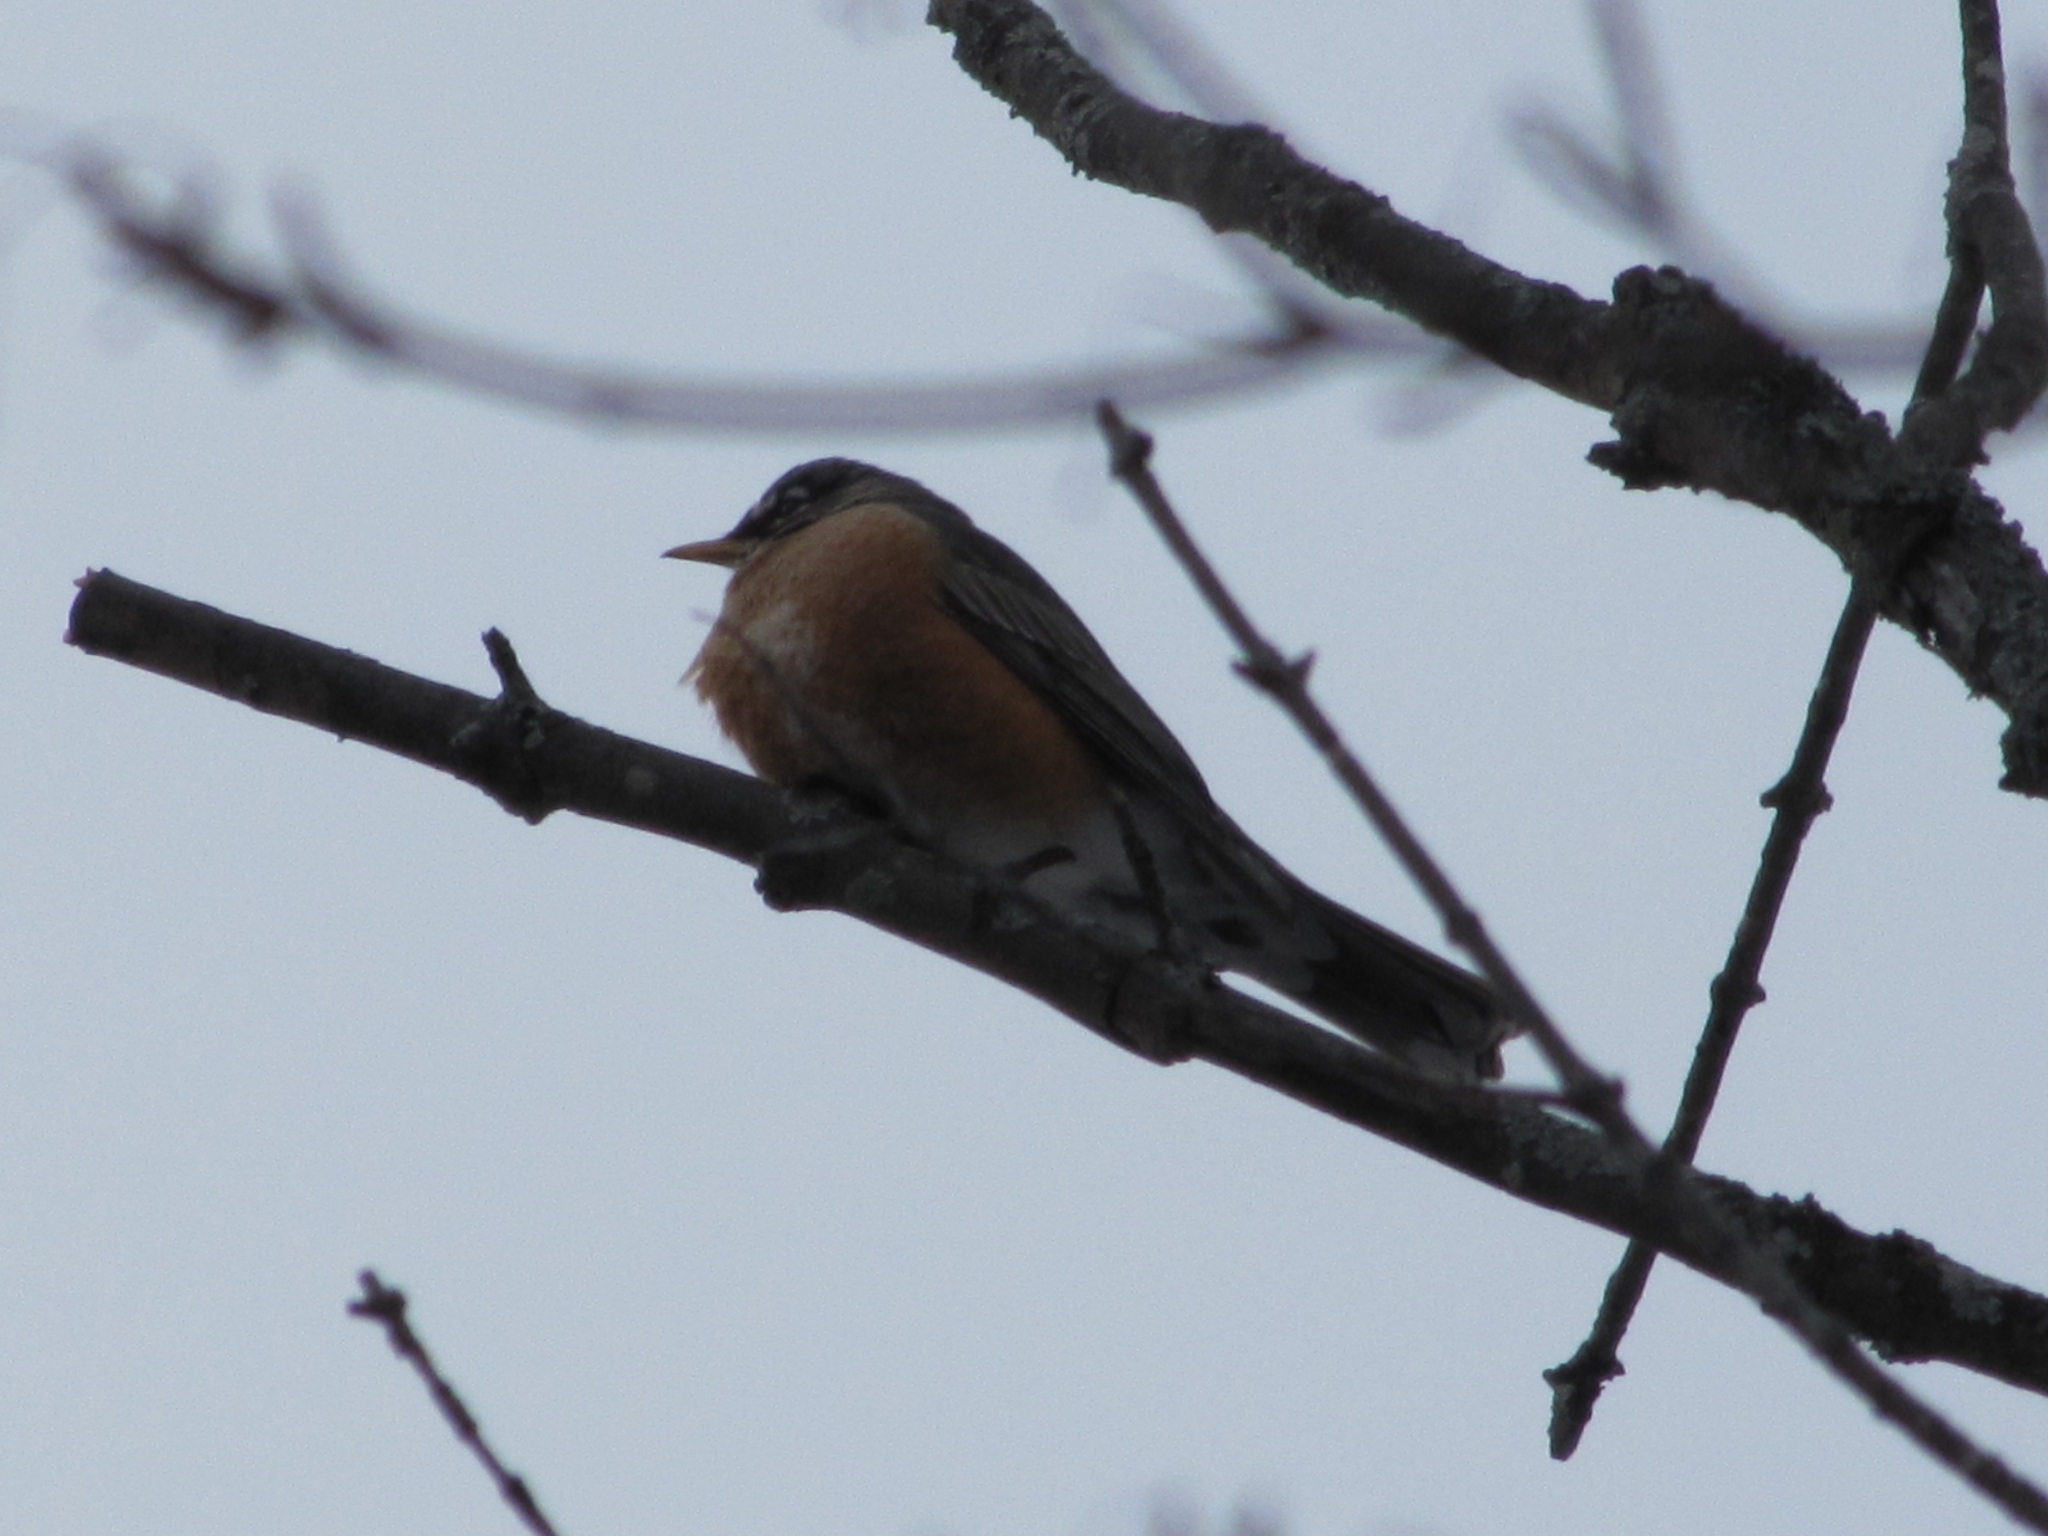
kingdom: Animalia
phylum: Chordata
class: Aves
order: Passeriformes
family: Turdidae
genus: Turdus
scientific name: Turdus migratorius
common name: American robin
